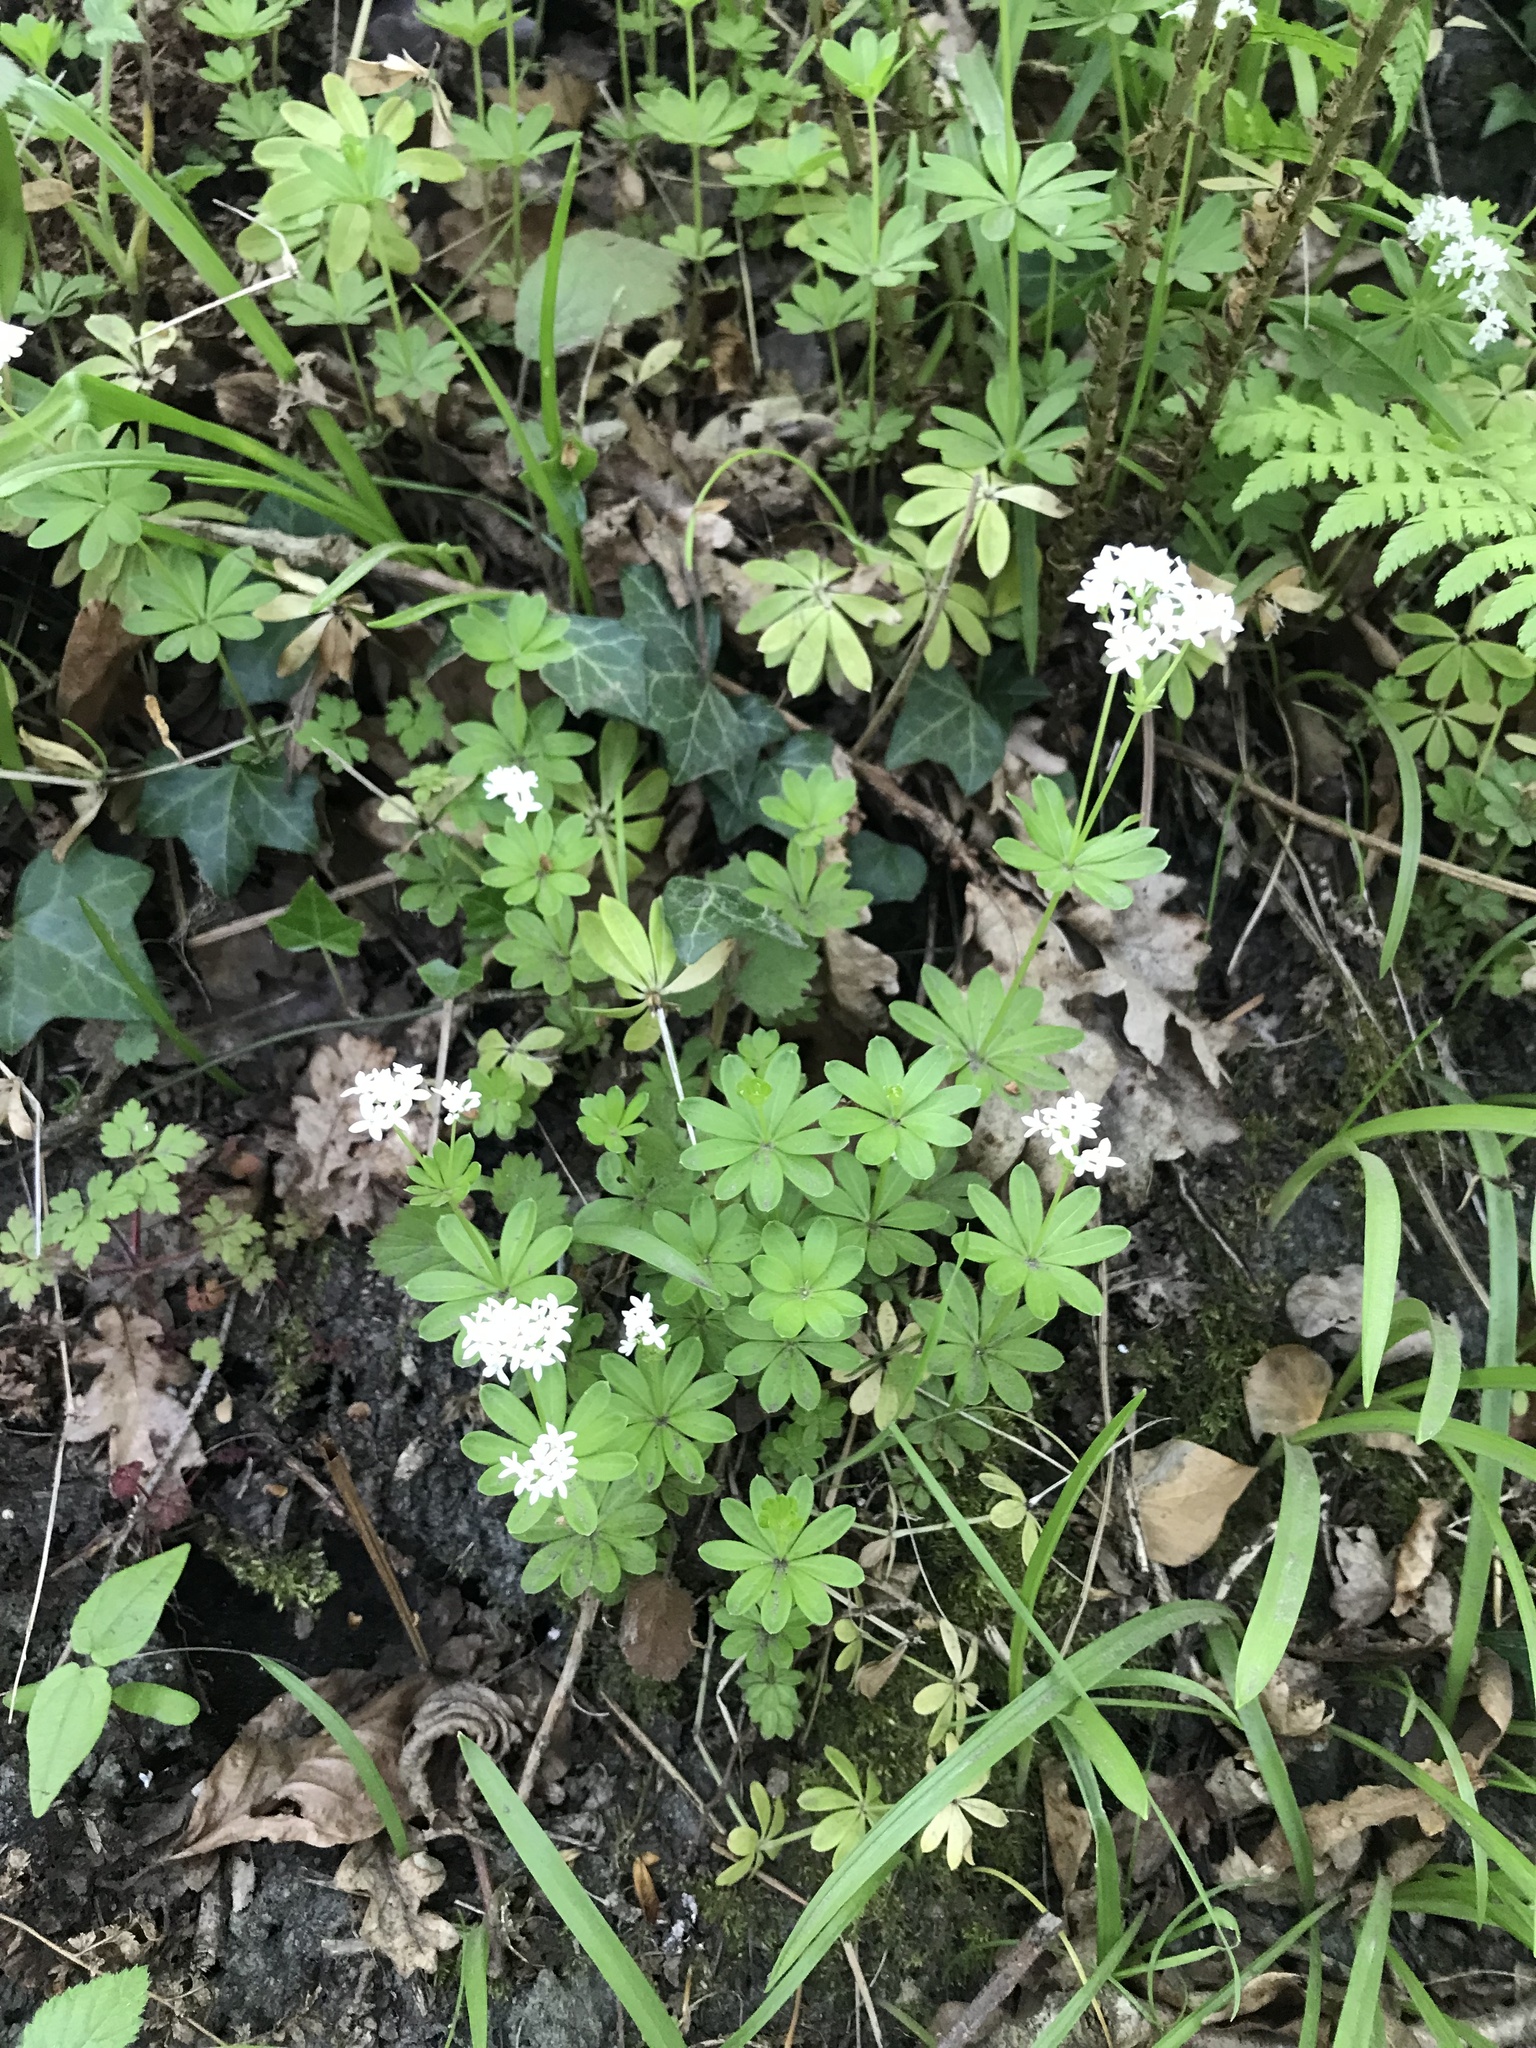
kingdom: Plantae
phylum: Tracheophyta
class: Magnoliopsida
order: Gentianales
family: Rubiaceae
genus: Galium
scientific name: Galium odoratum
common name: Sweet woodruff
